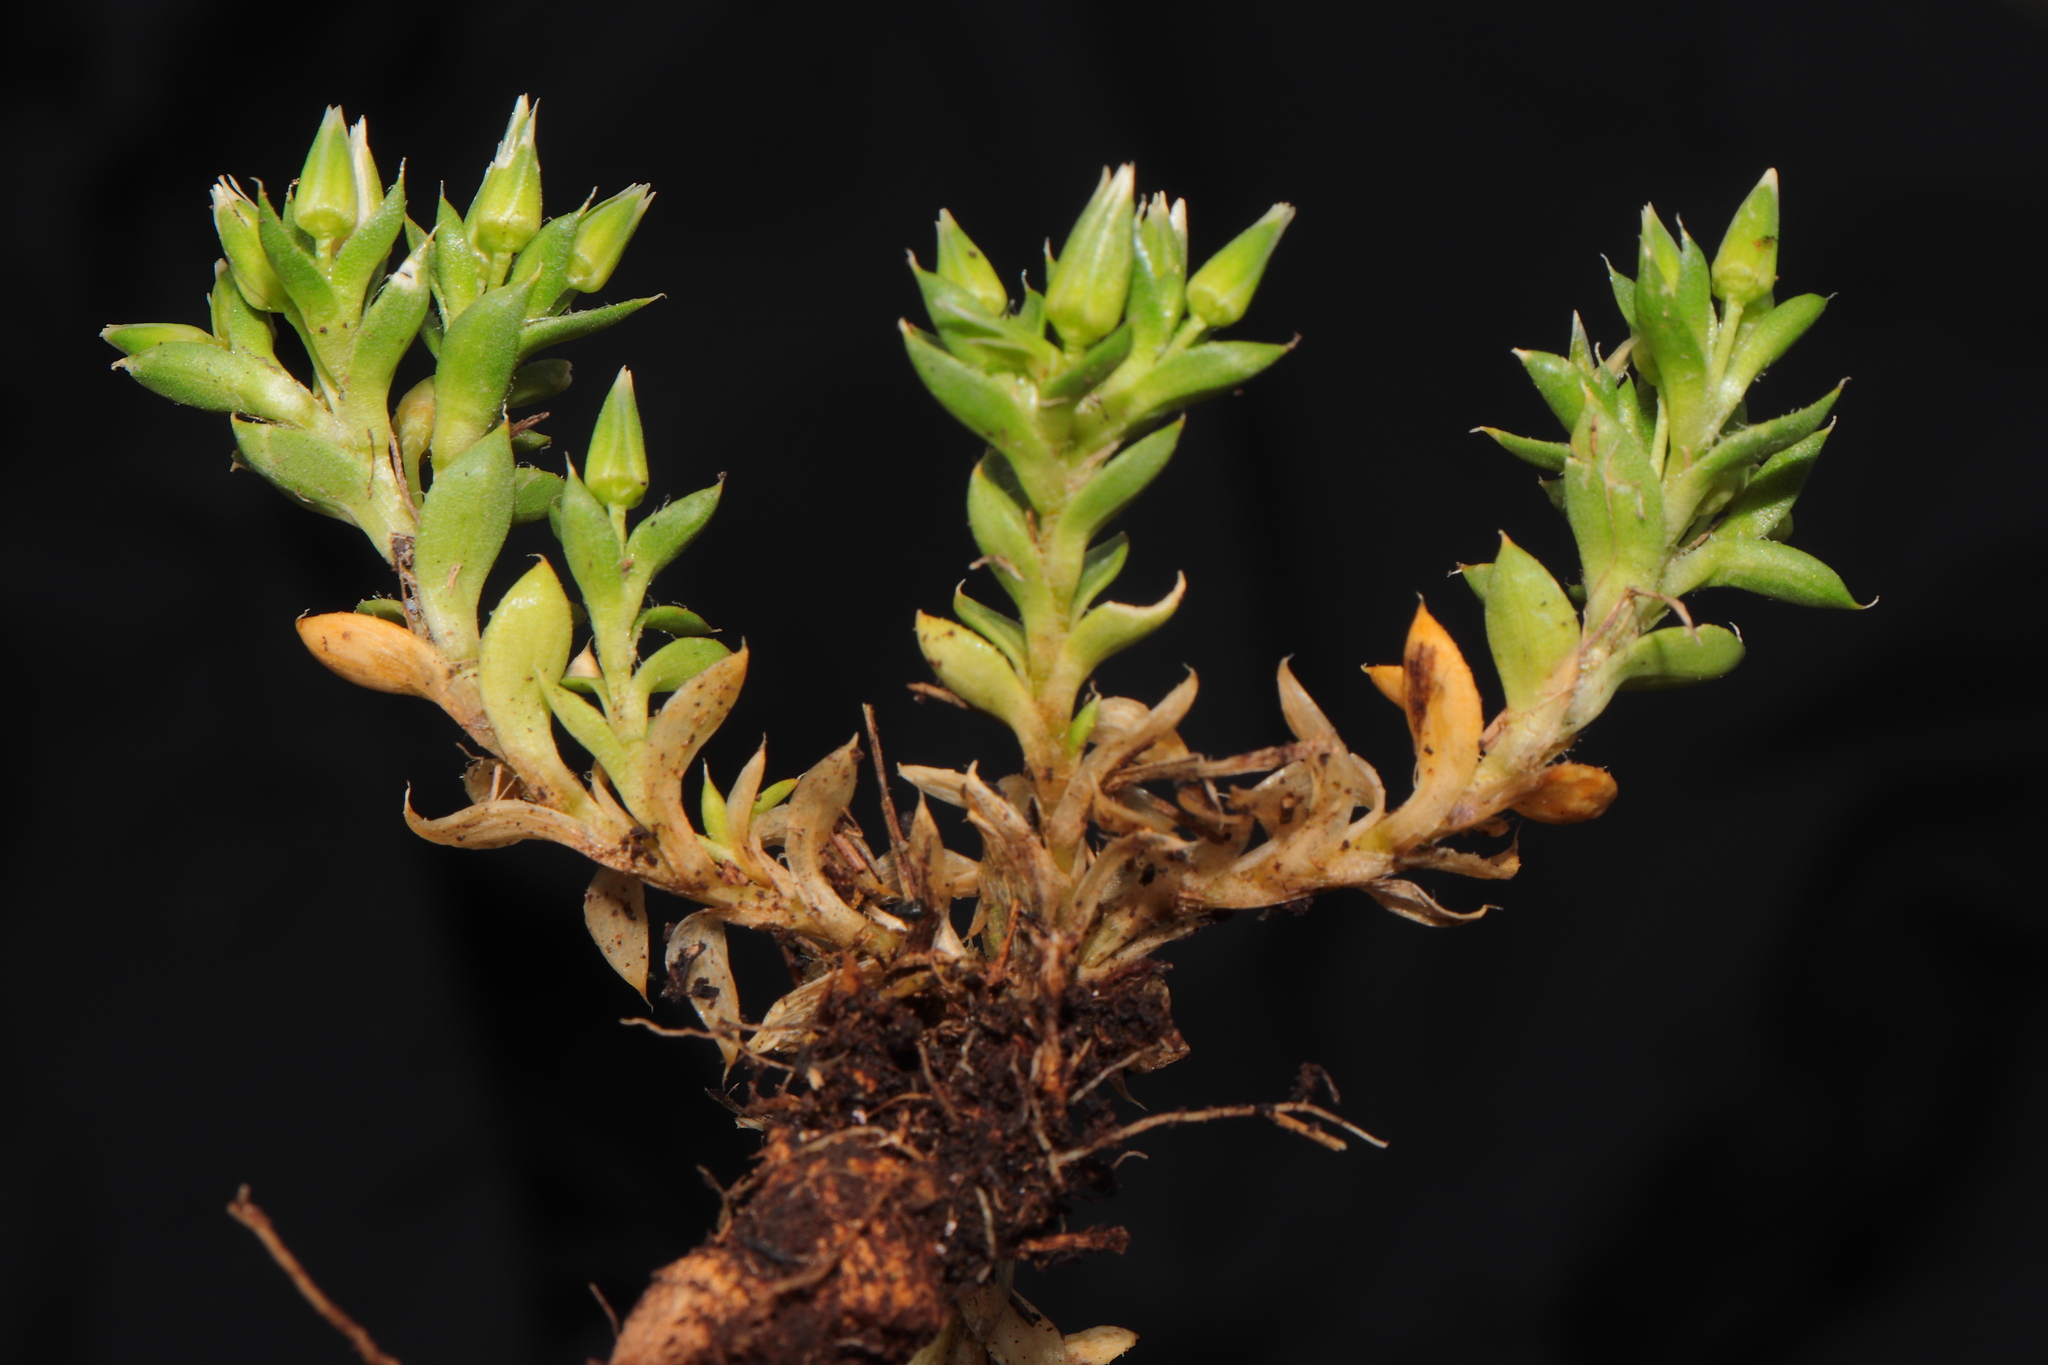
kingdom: Plantae
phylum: Tracheophyta
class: Magnoliopsida
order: Caryophyllales
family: Caryophyllaceae
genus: Arenaria
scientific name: Arenaria engleriana
